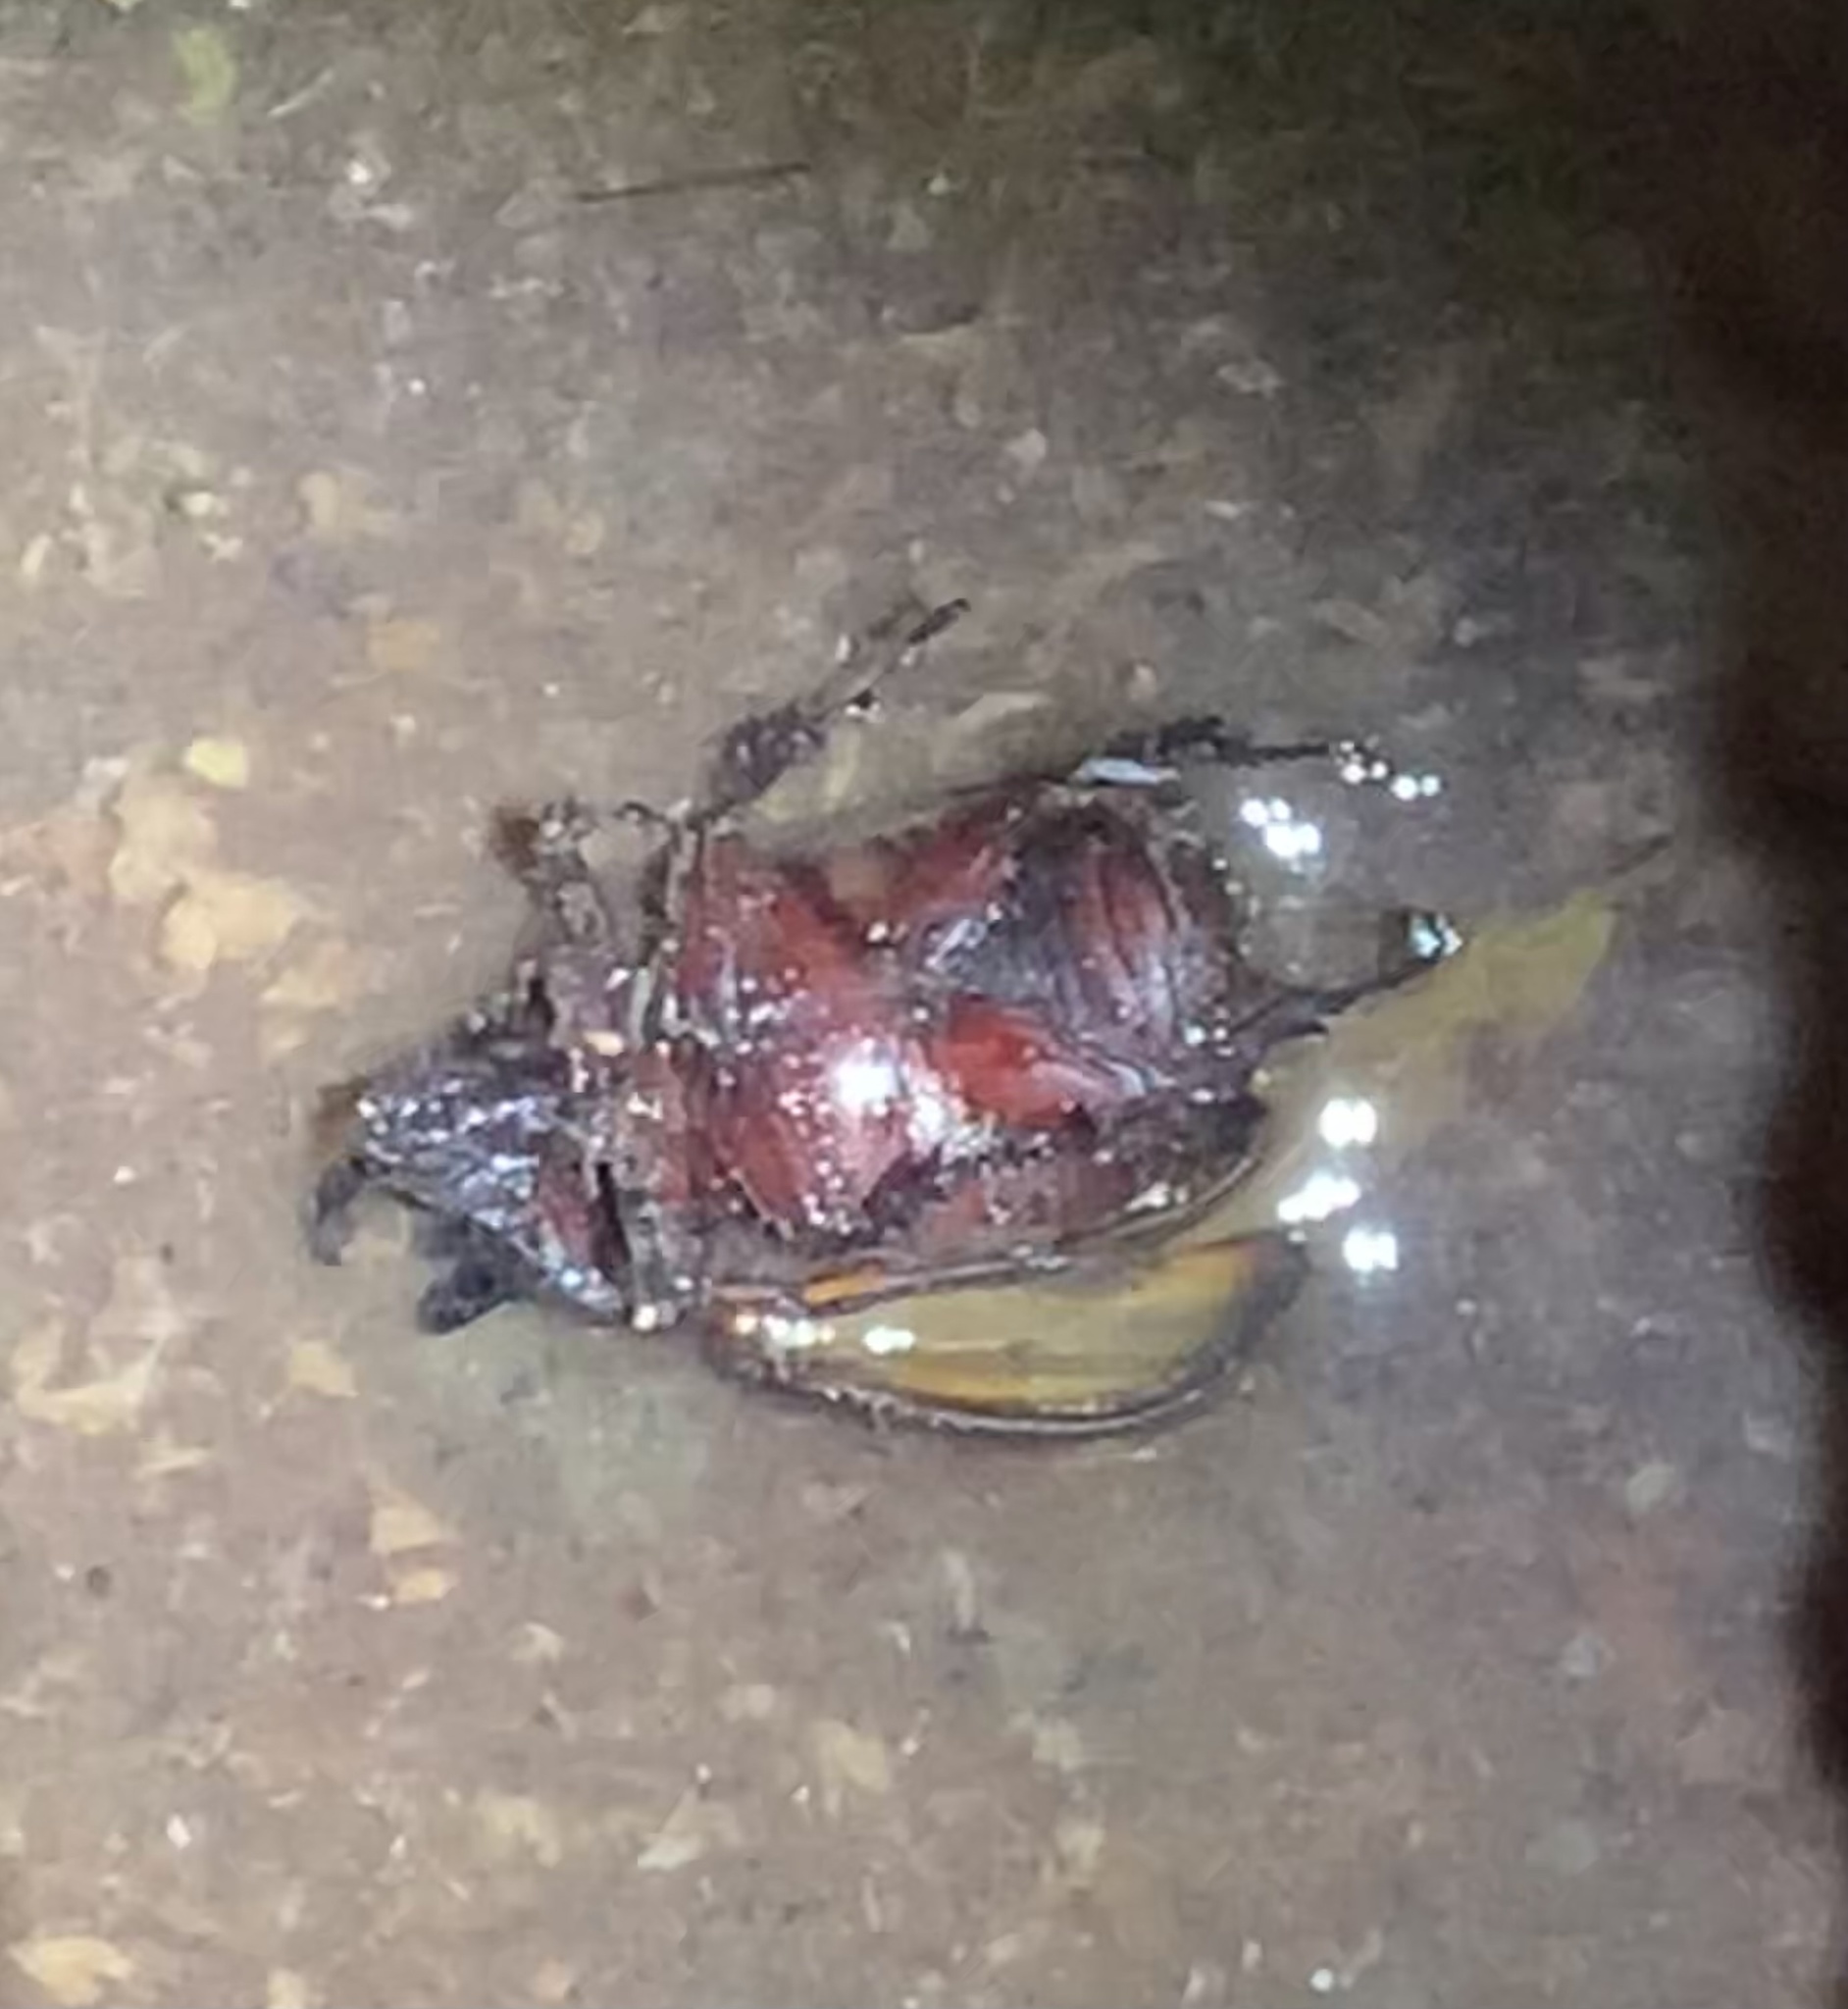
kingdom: Animalia
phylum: Arthropoda
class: Insecta
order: Coleoptera
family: Scarabaeidae
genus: Heterogomphus
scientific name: Heterogomphus mniszechi
